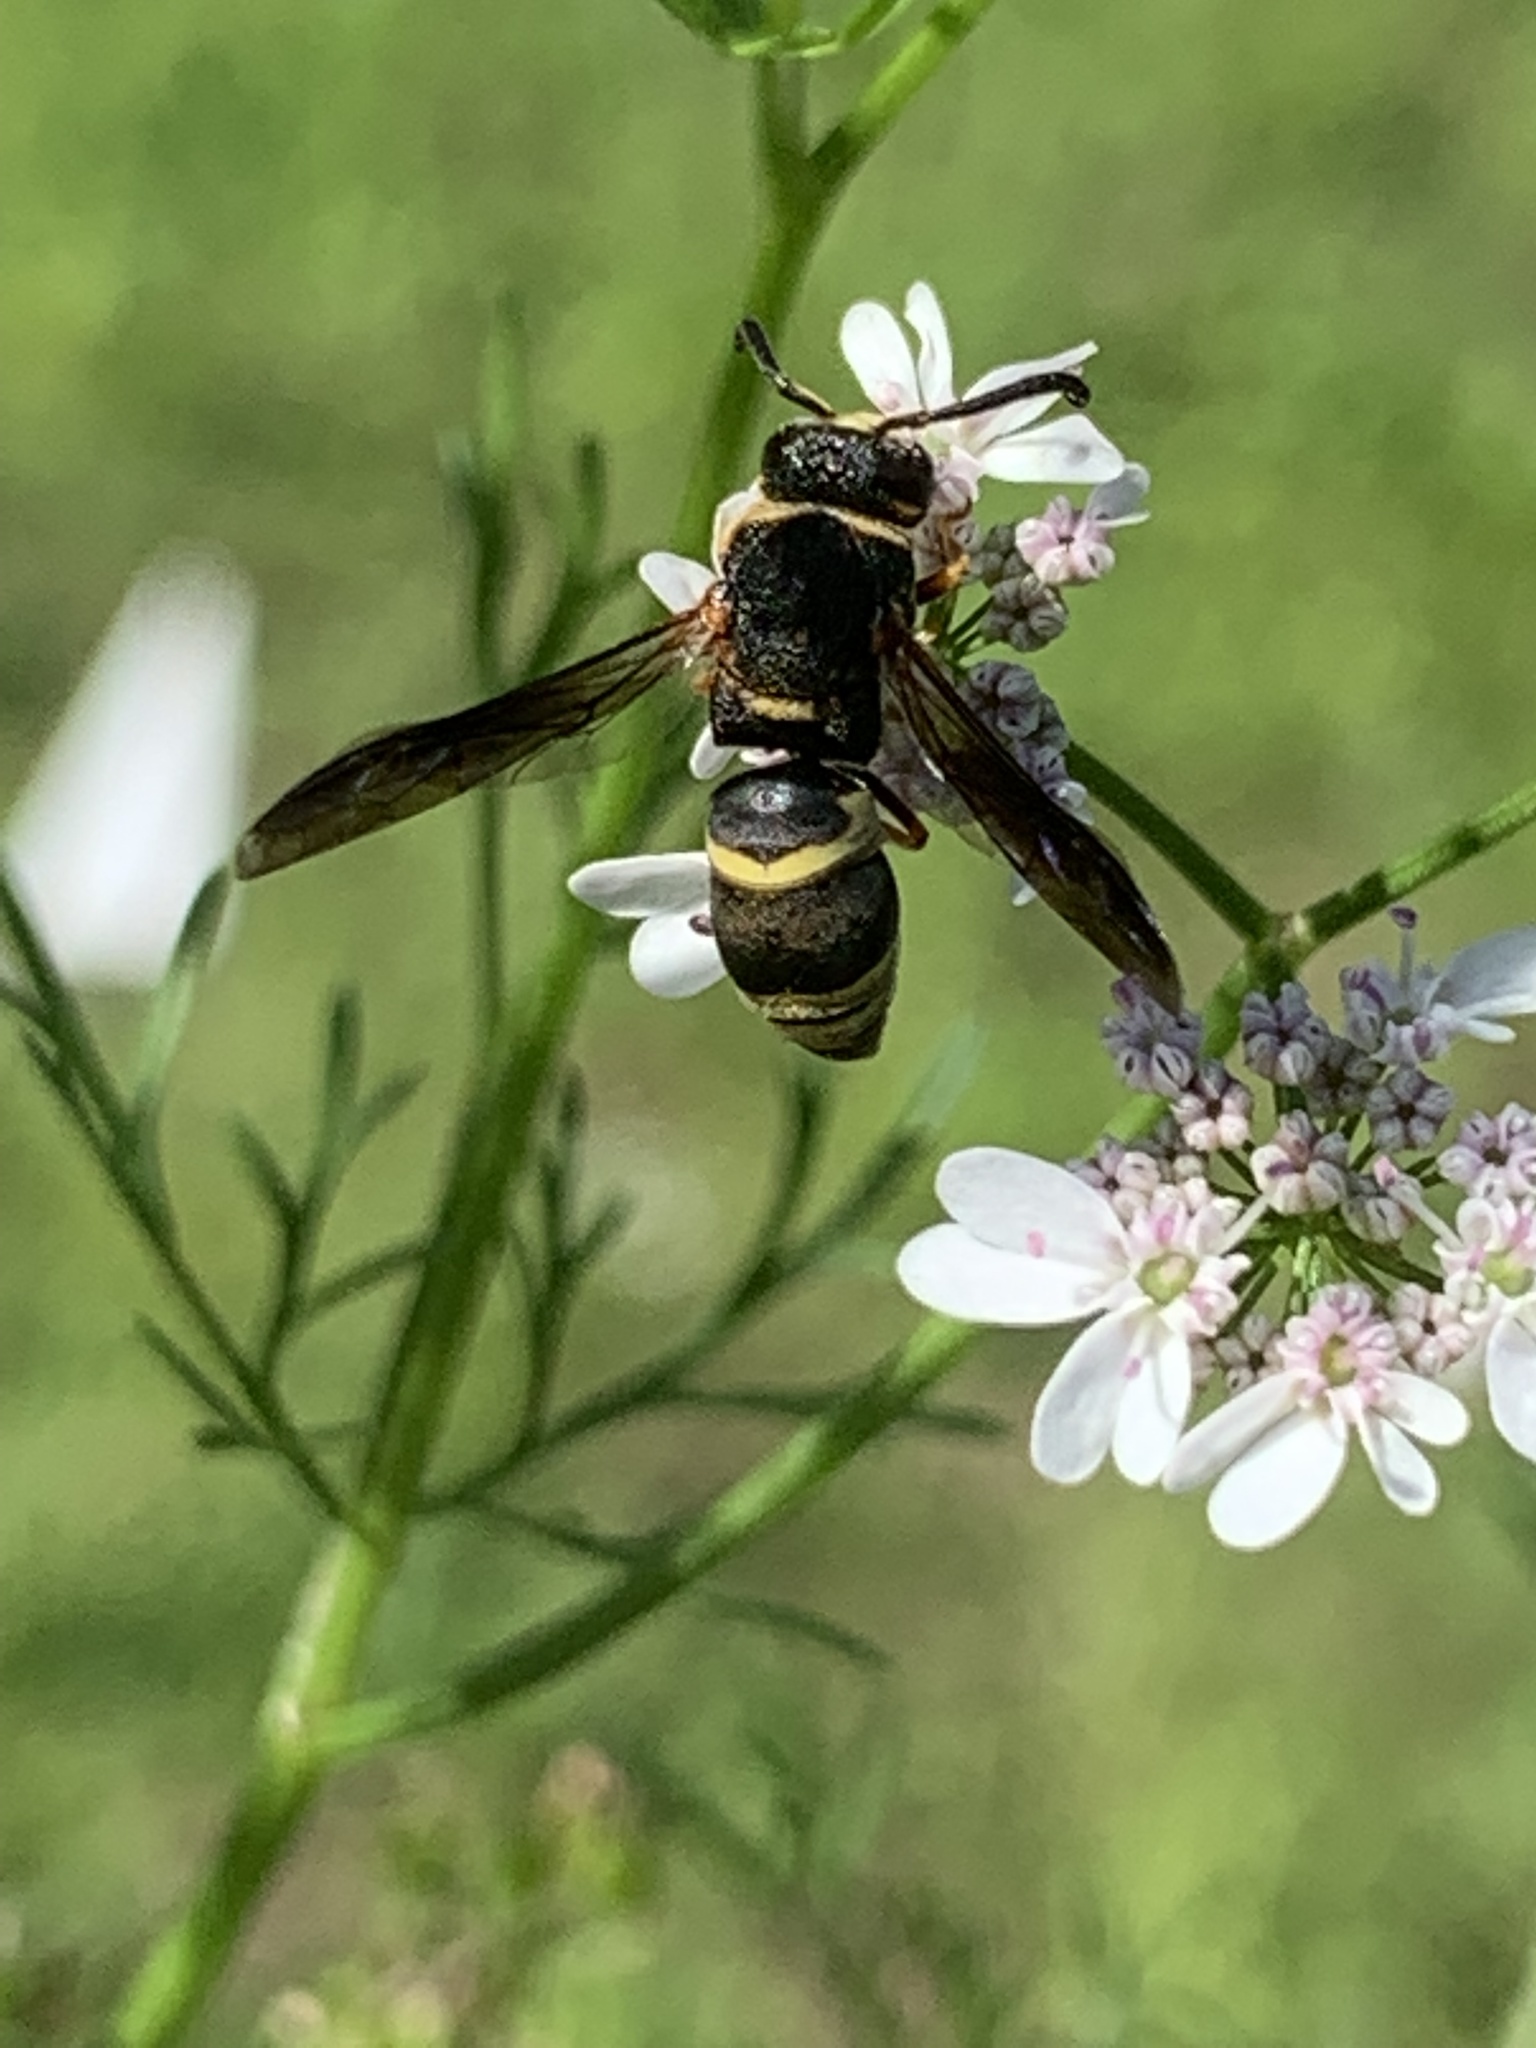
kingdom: Animalia
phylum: Arthropoda
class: Insecta
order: Hymenoptera
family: Eumenidae
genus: Euodynerus
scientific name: Euodynerus hidalgo
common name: Wasp
